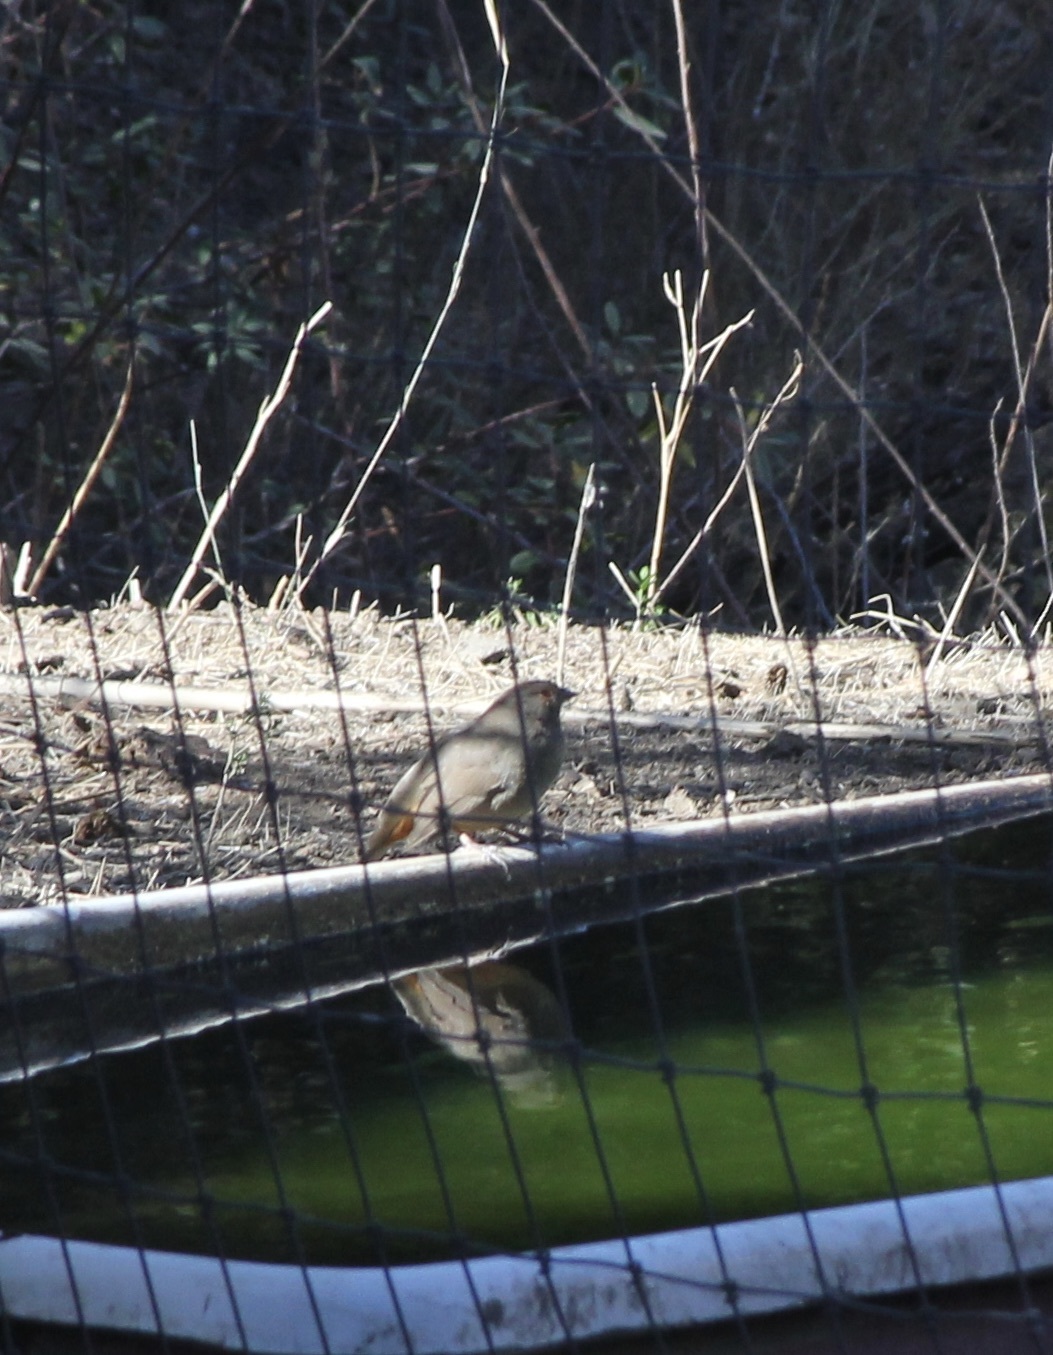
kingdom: Animalia
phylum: Chordata
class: Aves
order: Passeriformes
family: Passerellidae
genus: Melozone
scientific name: Melozone crissalis
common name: California towhee
